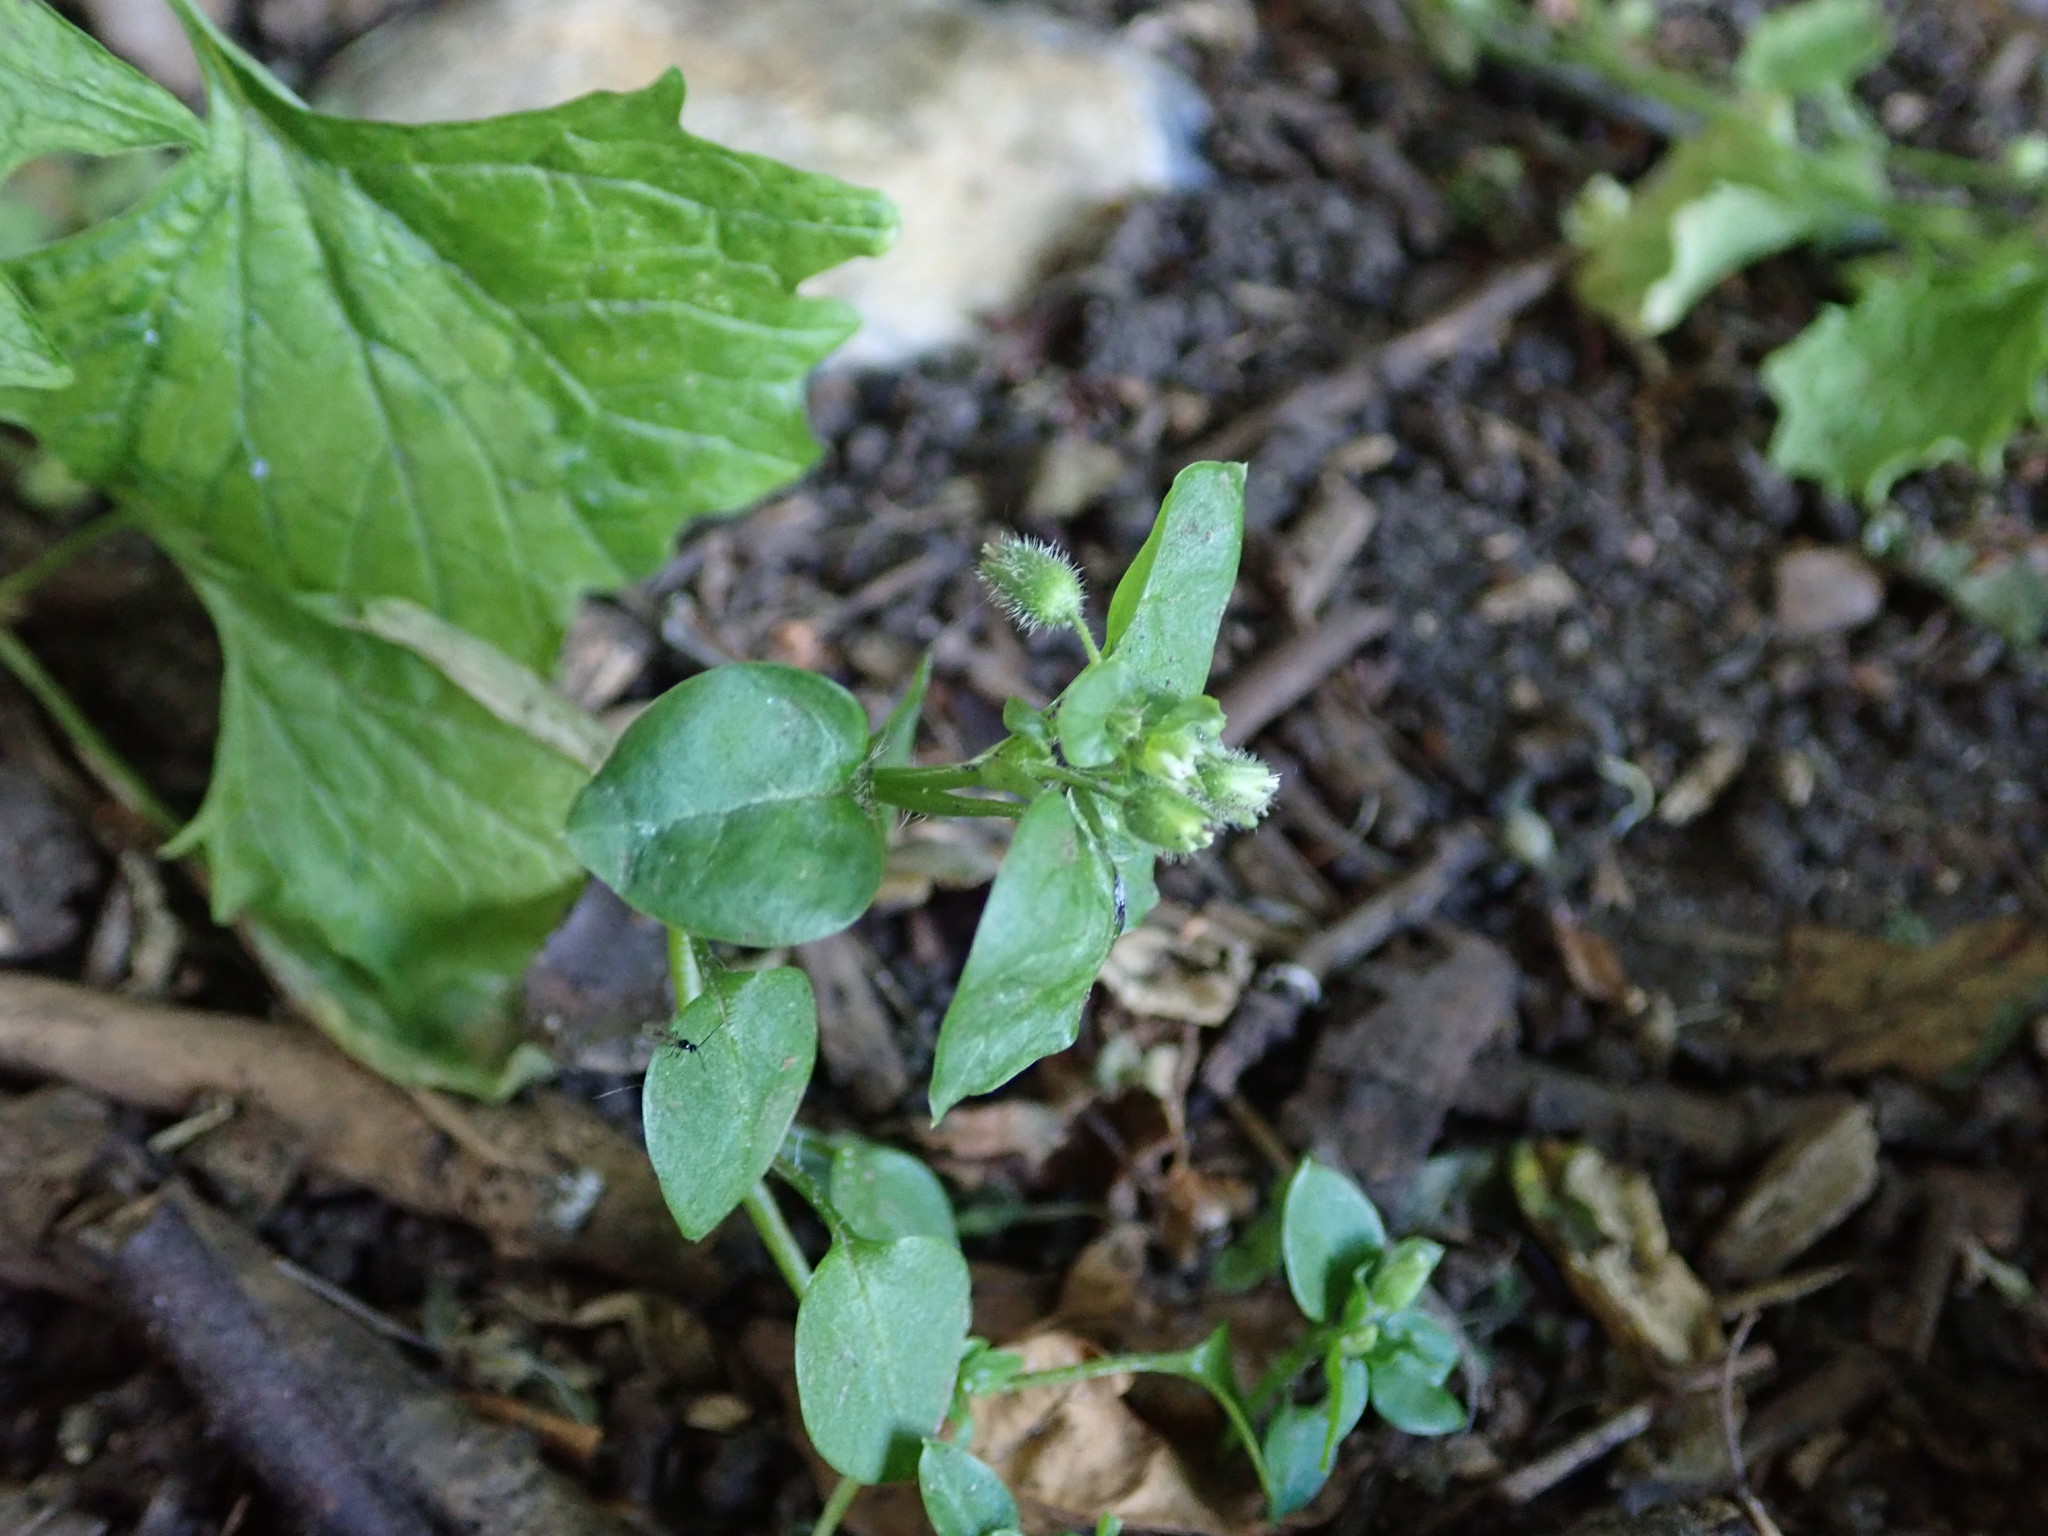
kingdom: Plantae
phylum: Tracheophyta
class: Magnoliopsida
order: Caryophyllales
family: Caryophyllaceae
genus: Stellaria
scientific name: Stellaria media
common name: Common chickweed
